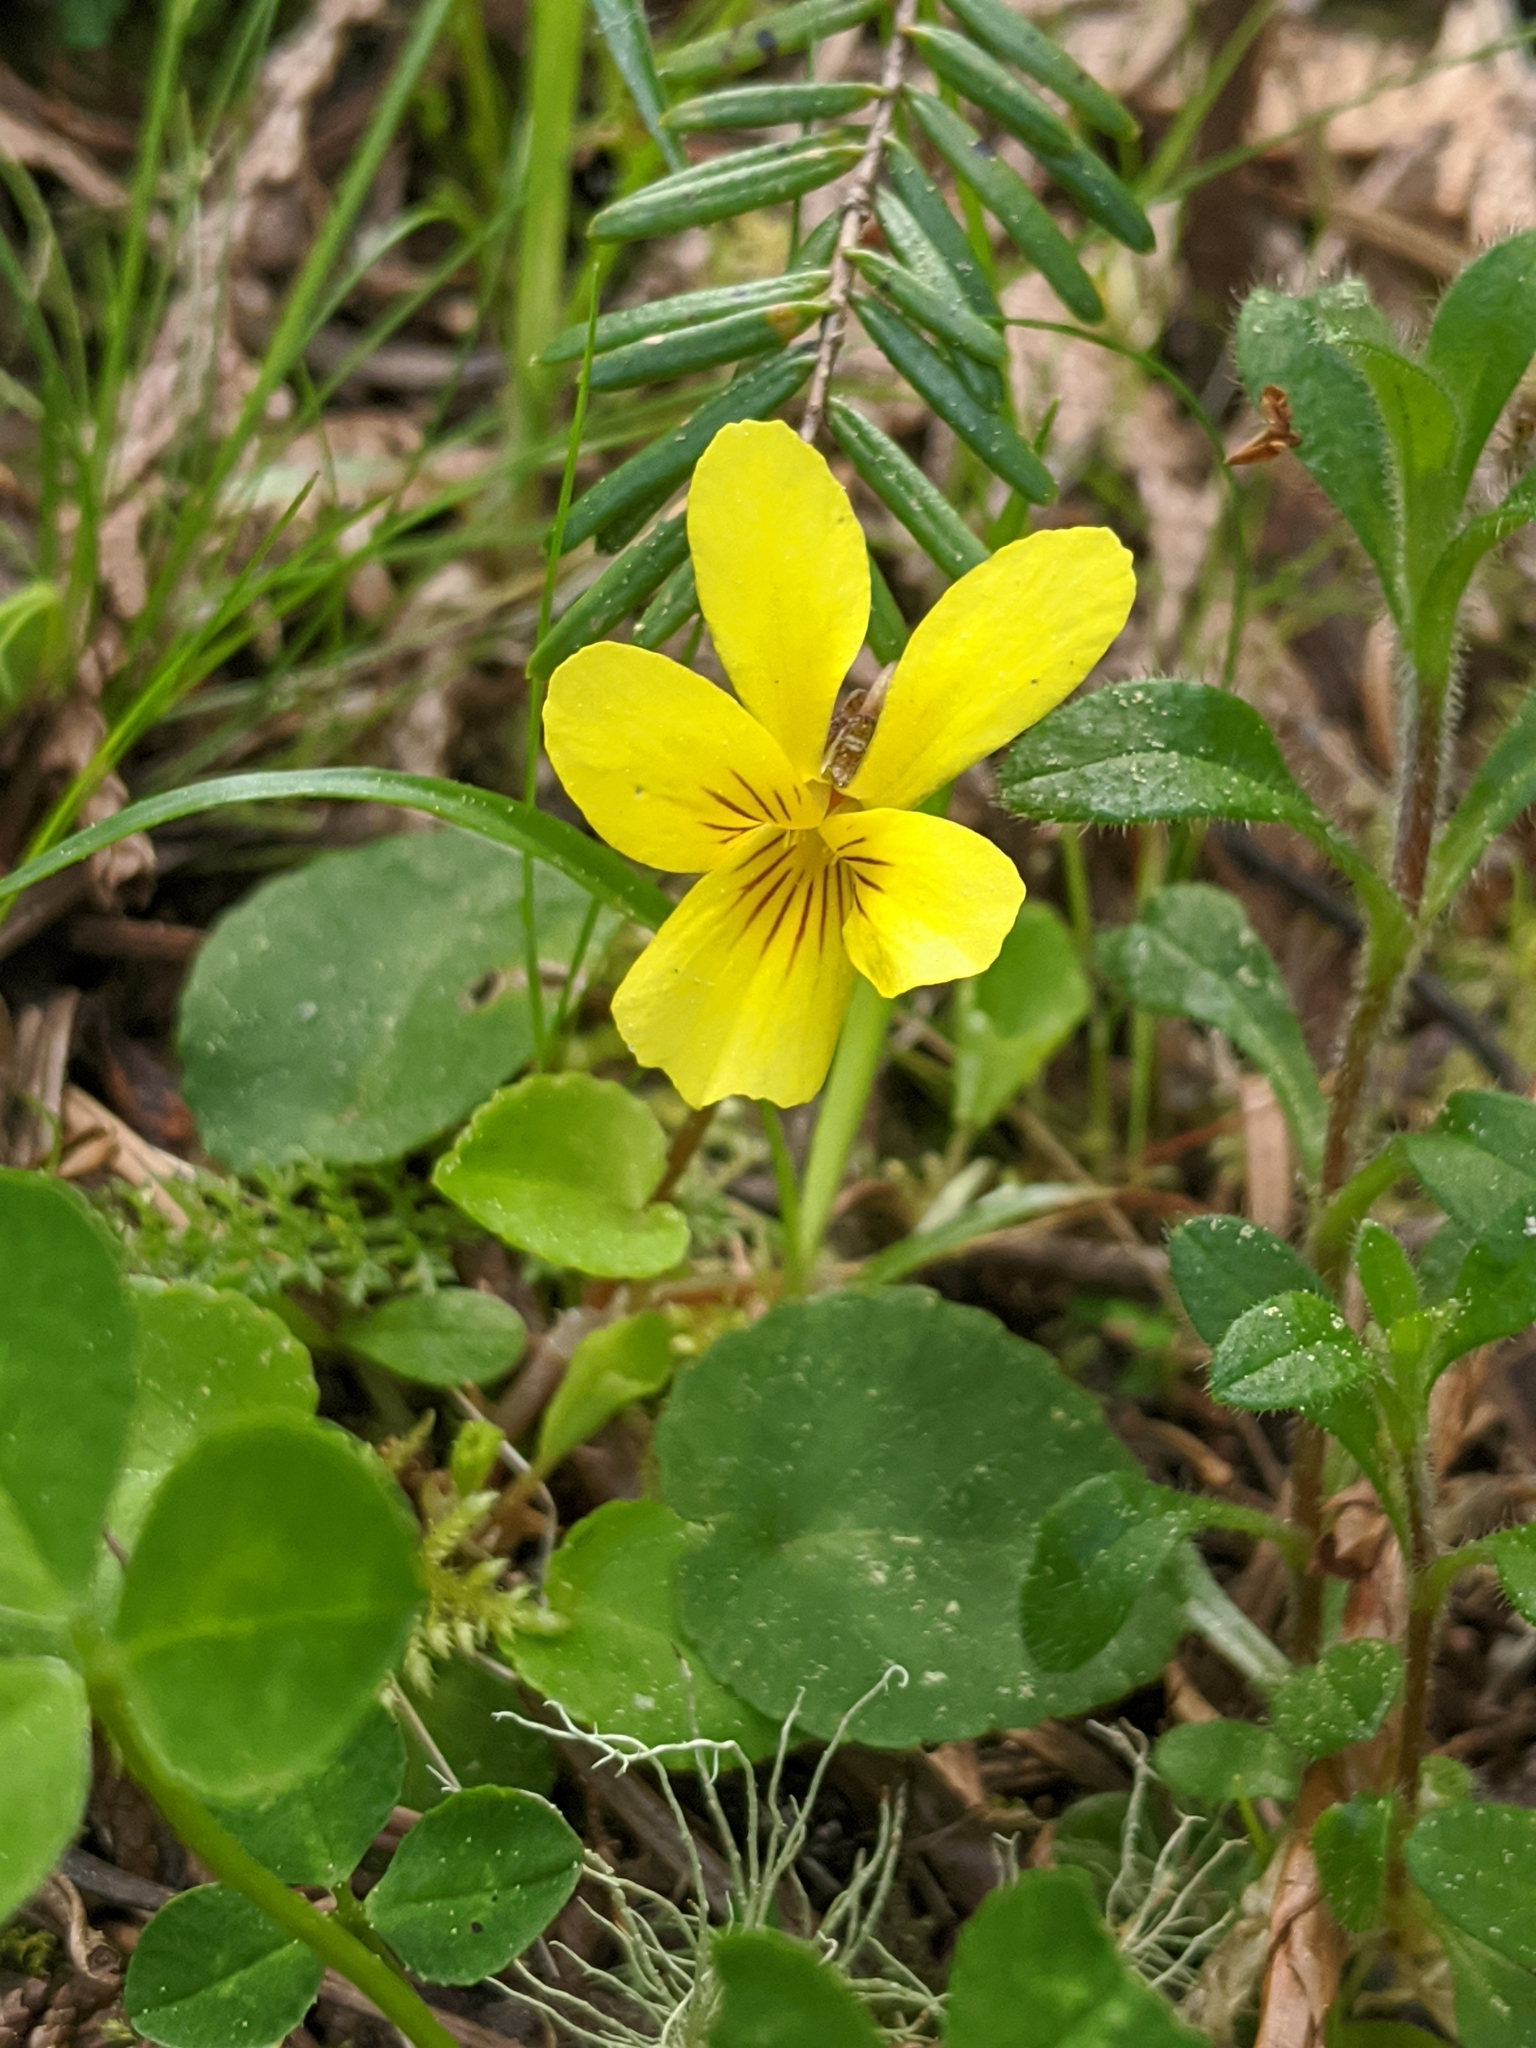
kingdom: Plantae
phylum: Tracheophyta
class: Magnoliopsida
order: Malpighiales
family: Violaceae
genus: Viola
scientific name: Viola sempervirens
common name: Evergreen violet
